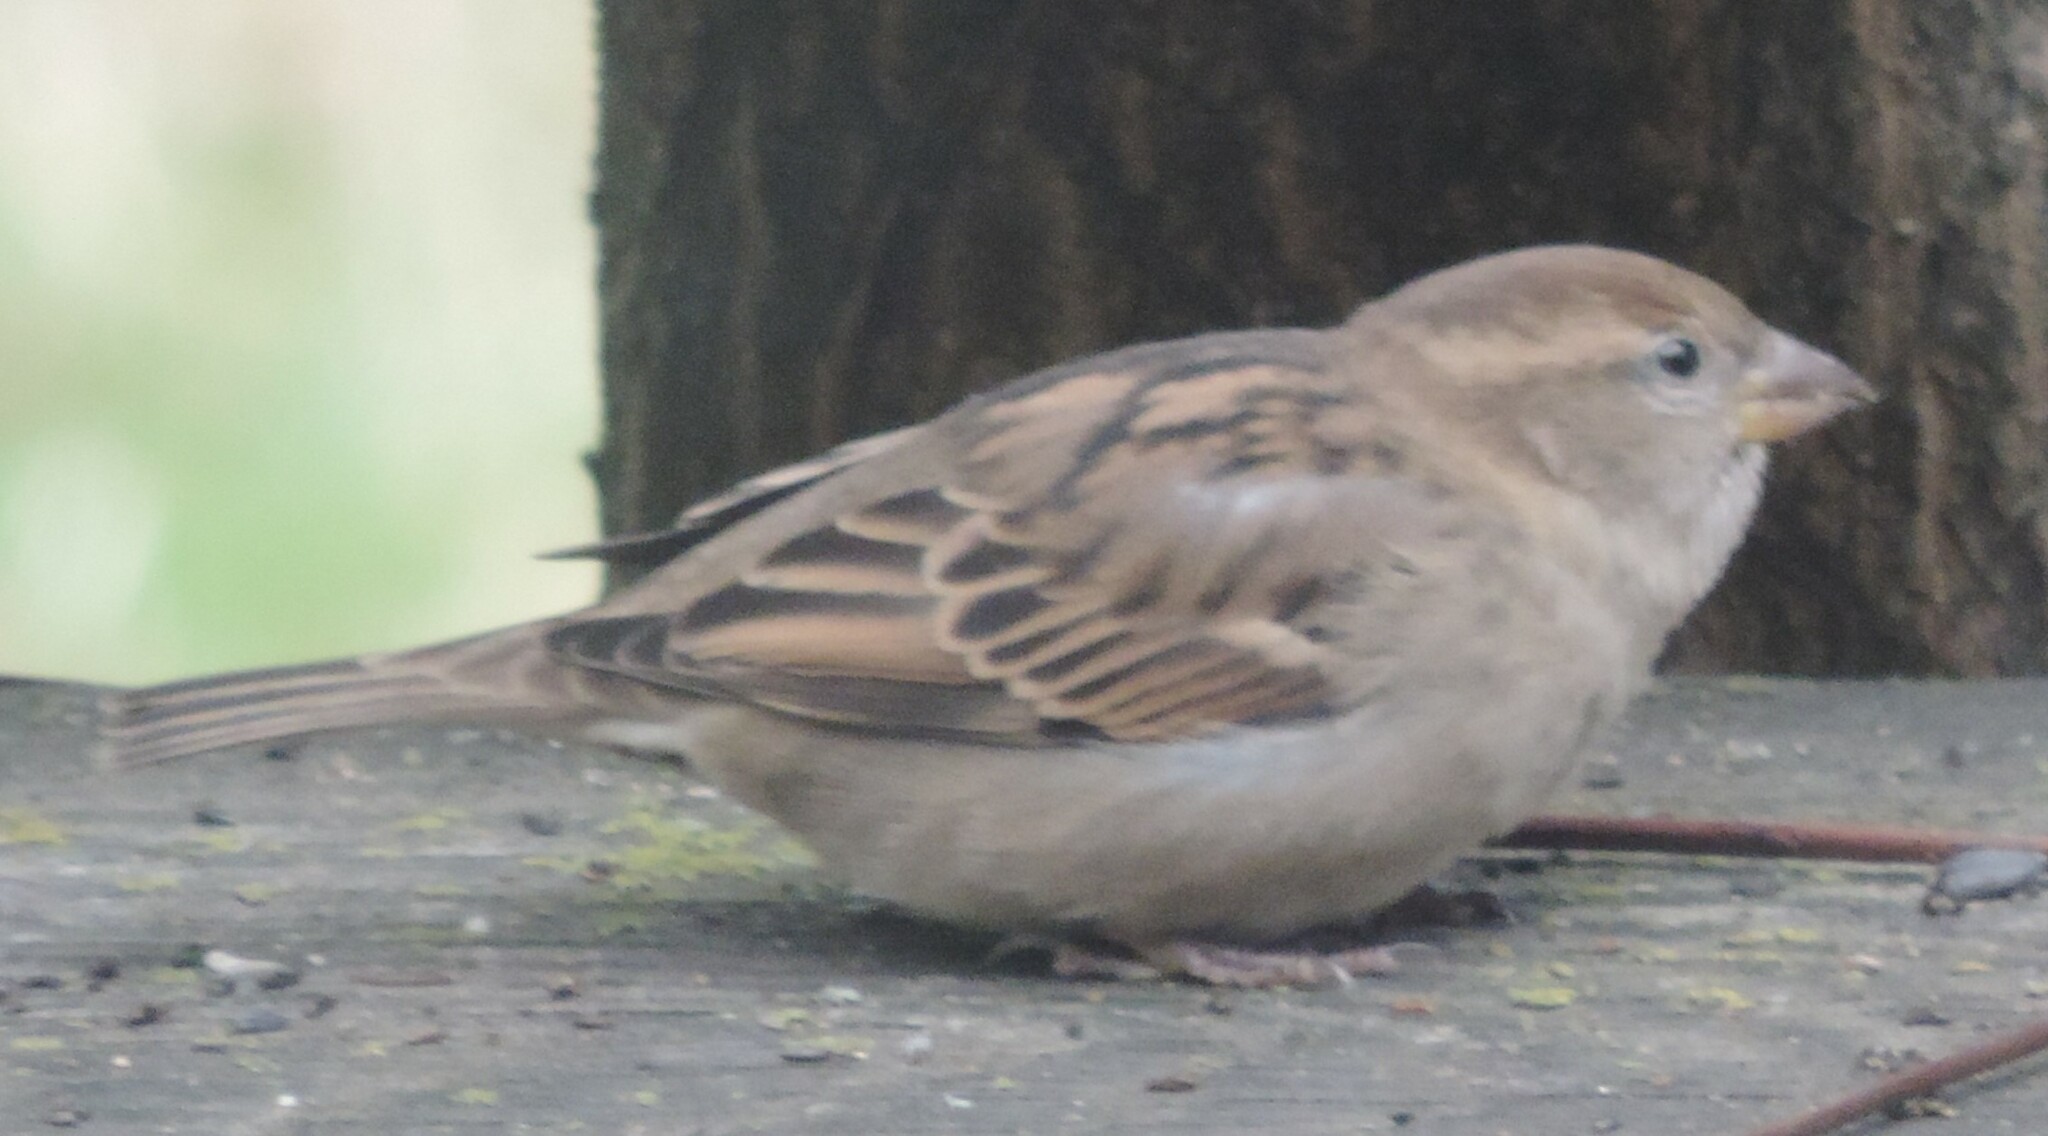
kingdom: Animalia
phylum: Chordata
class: Aves
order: Passeriformes
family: Passeridae
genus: Passer
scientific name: Passer domesticus
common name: House sparrow
